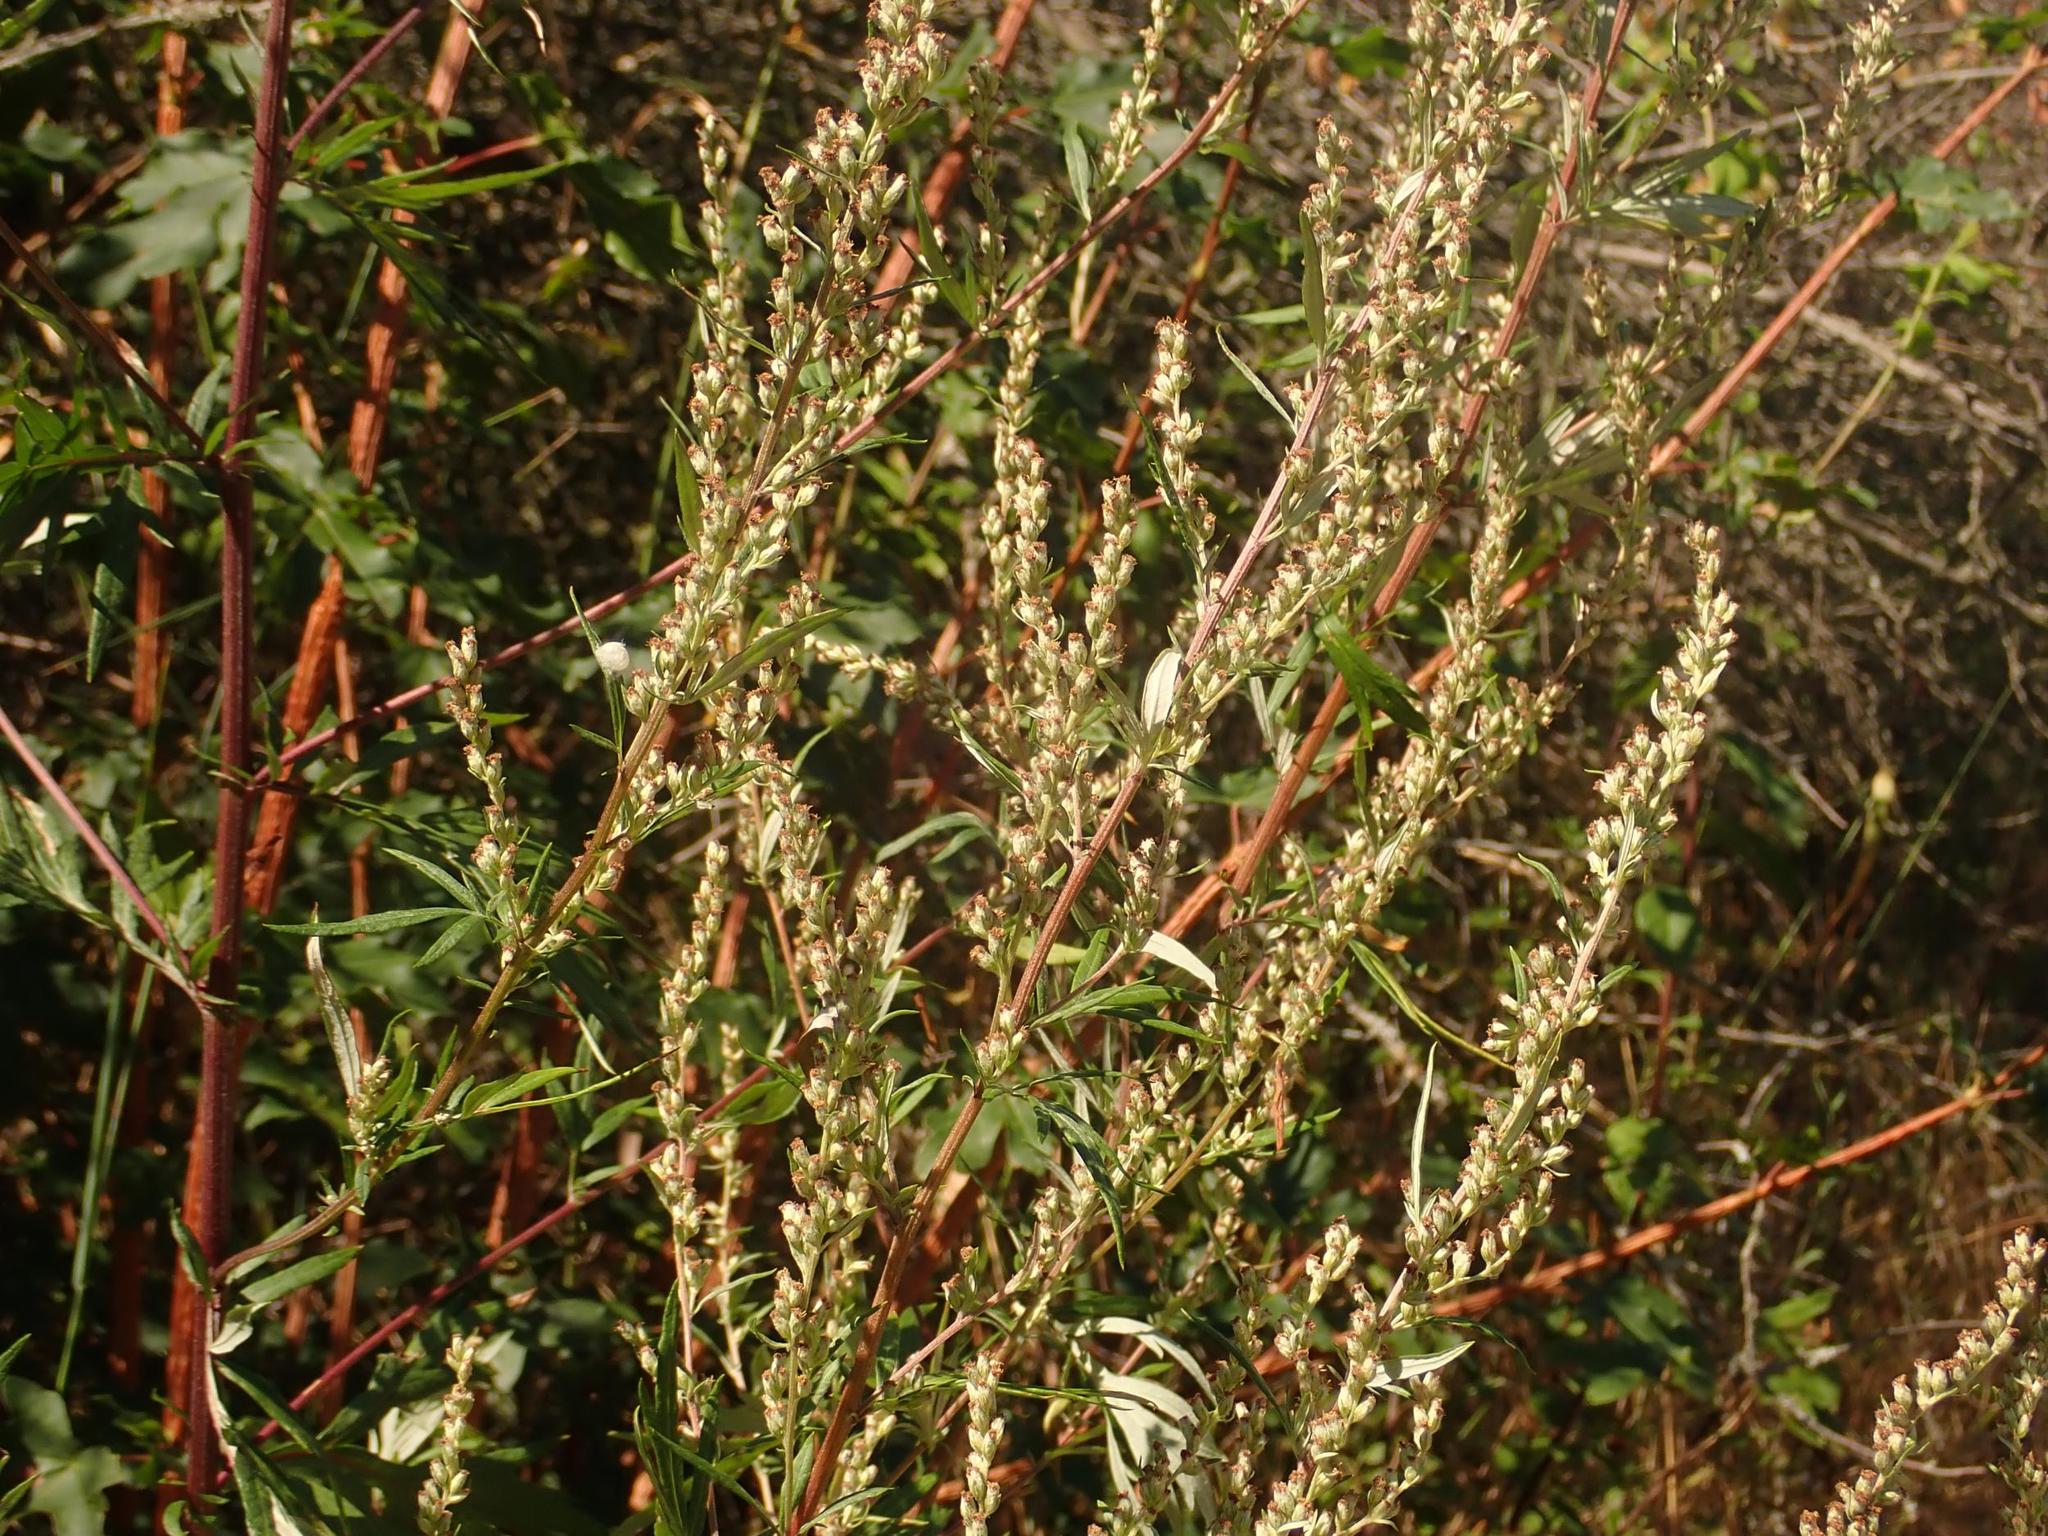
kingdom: Plantae
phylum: Tracheophyta
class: Magnoliopsida
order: Asterales
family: Asteraceae
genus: Artemisia
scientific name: Artemisia vulgaris
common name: Mugwort
